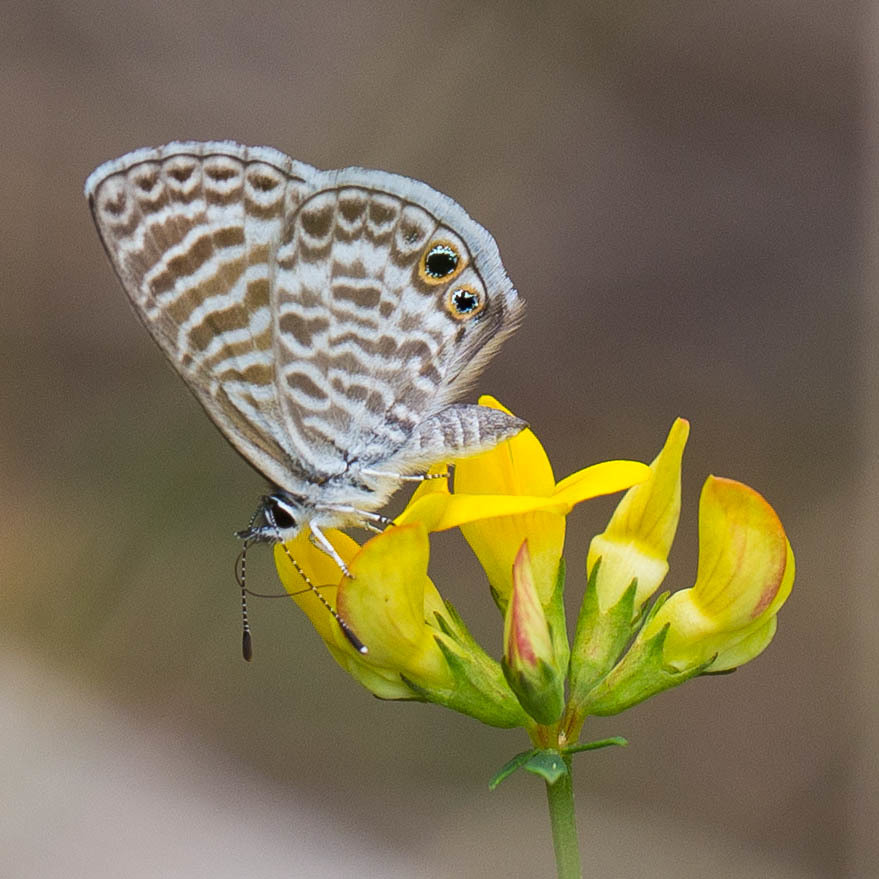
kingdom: Animalia
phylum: Arthropoda
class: Insecta
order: Lepidoptera
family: Lycaenidae
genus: Leptotes
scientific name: Leptotes marina
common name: Marine blue
